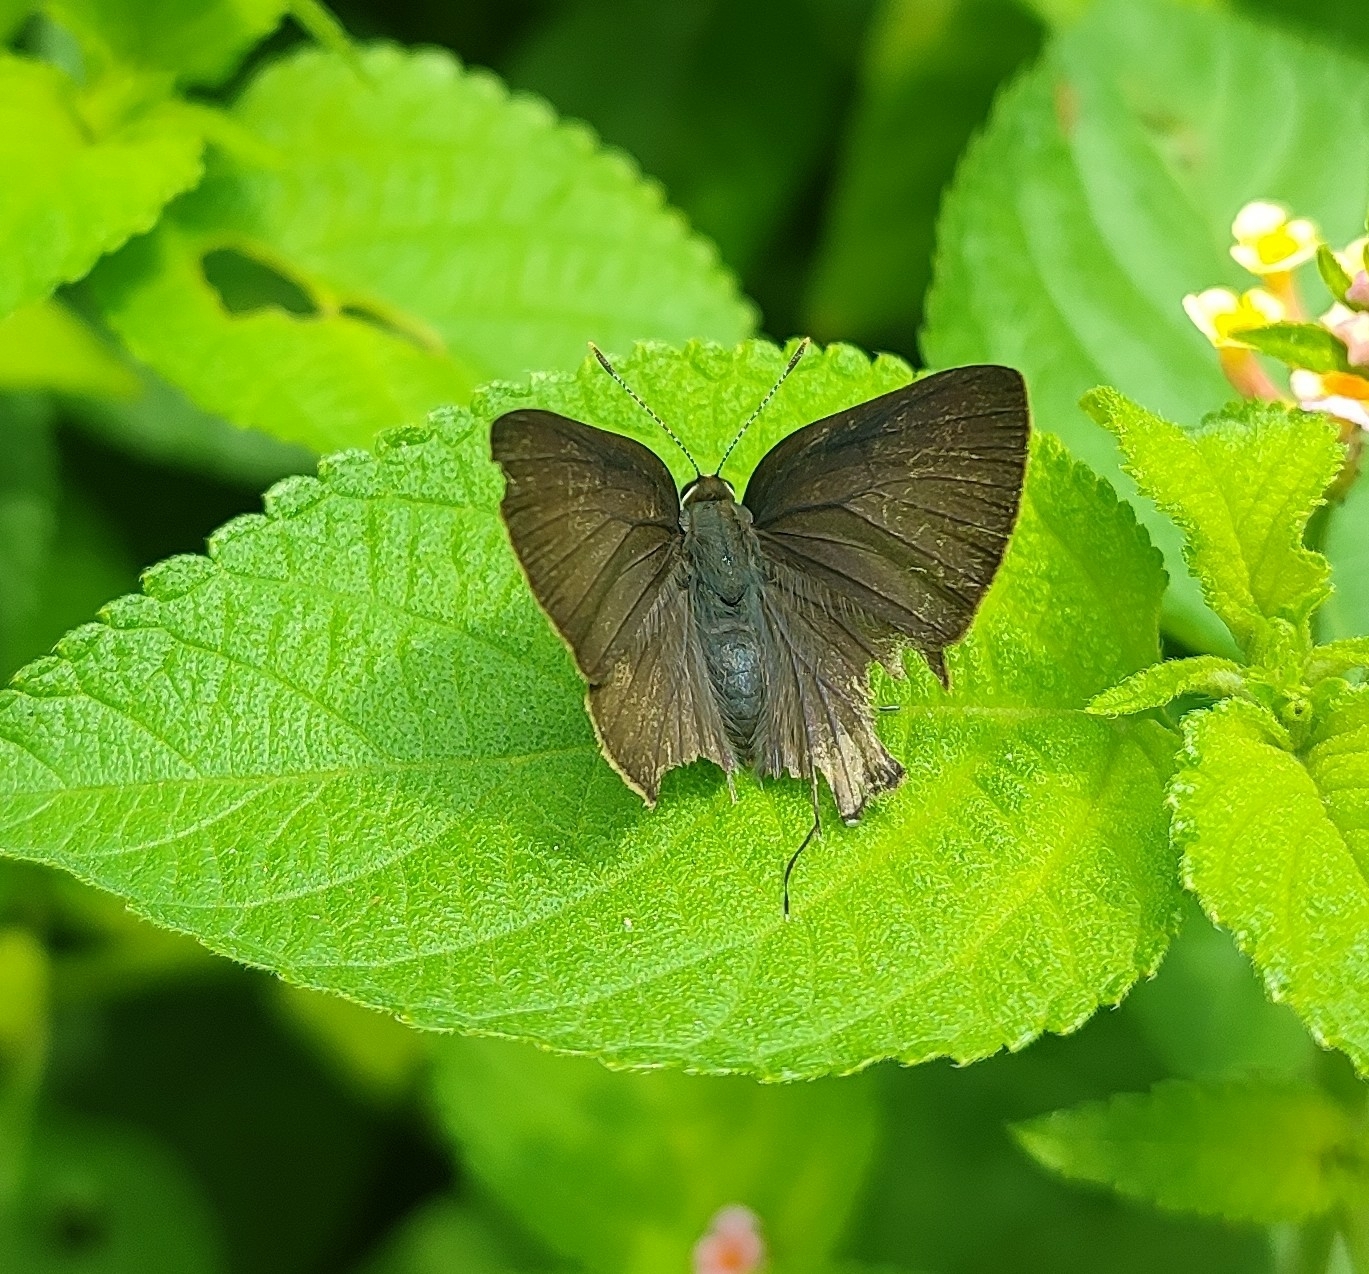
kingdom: Animalia
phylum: Arthropoda
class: Insecta
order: Lepidoptera
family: Lycaenidae
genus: Rapala
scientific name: Rapala manea
